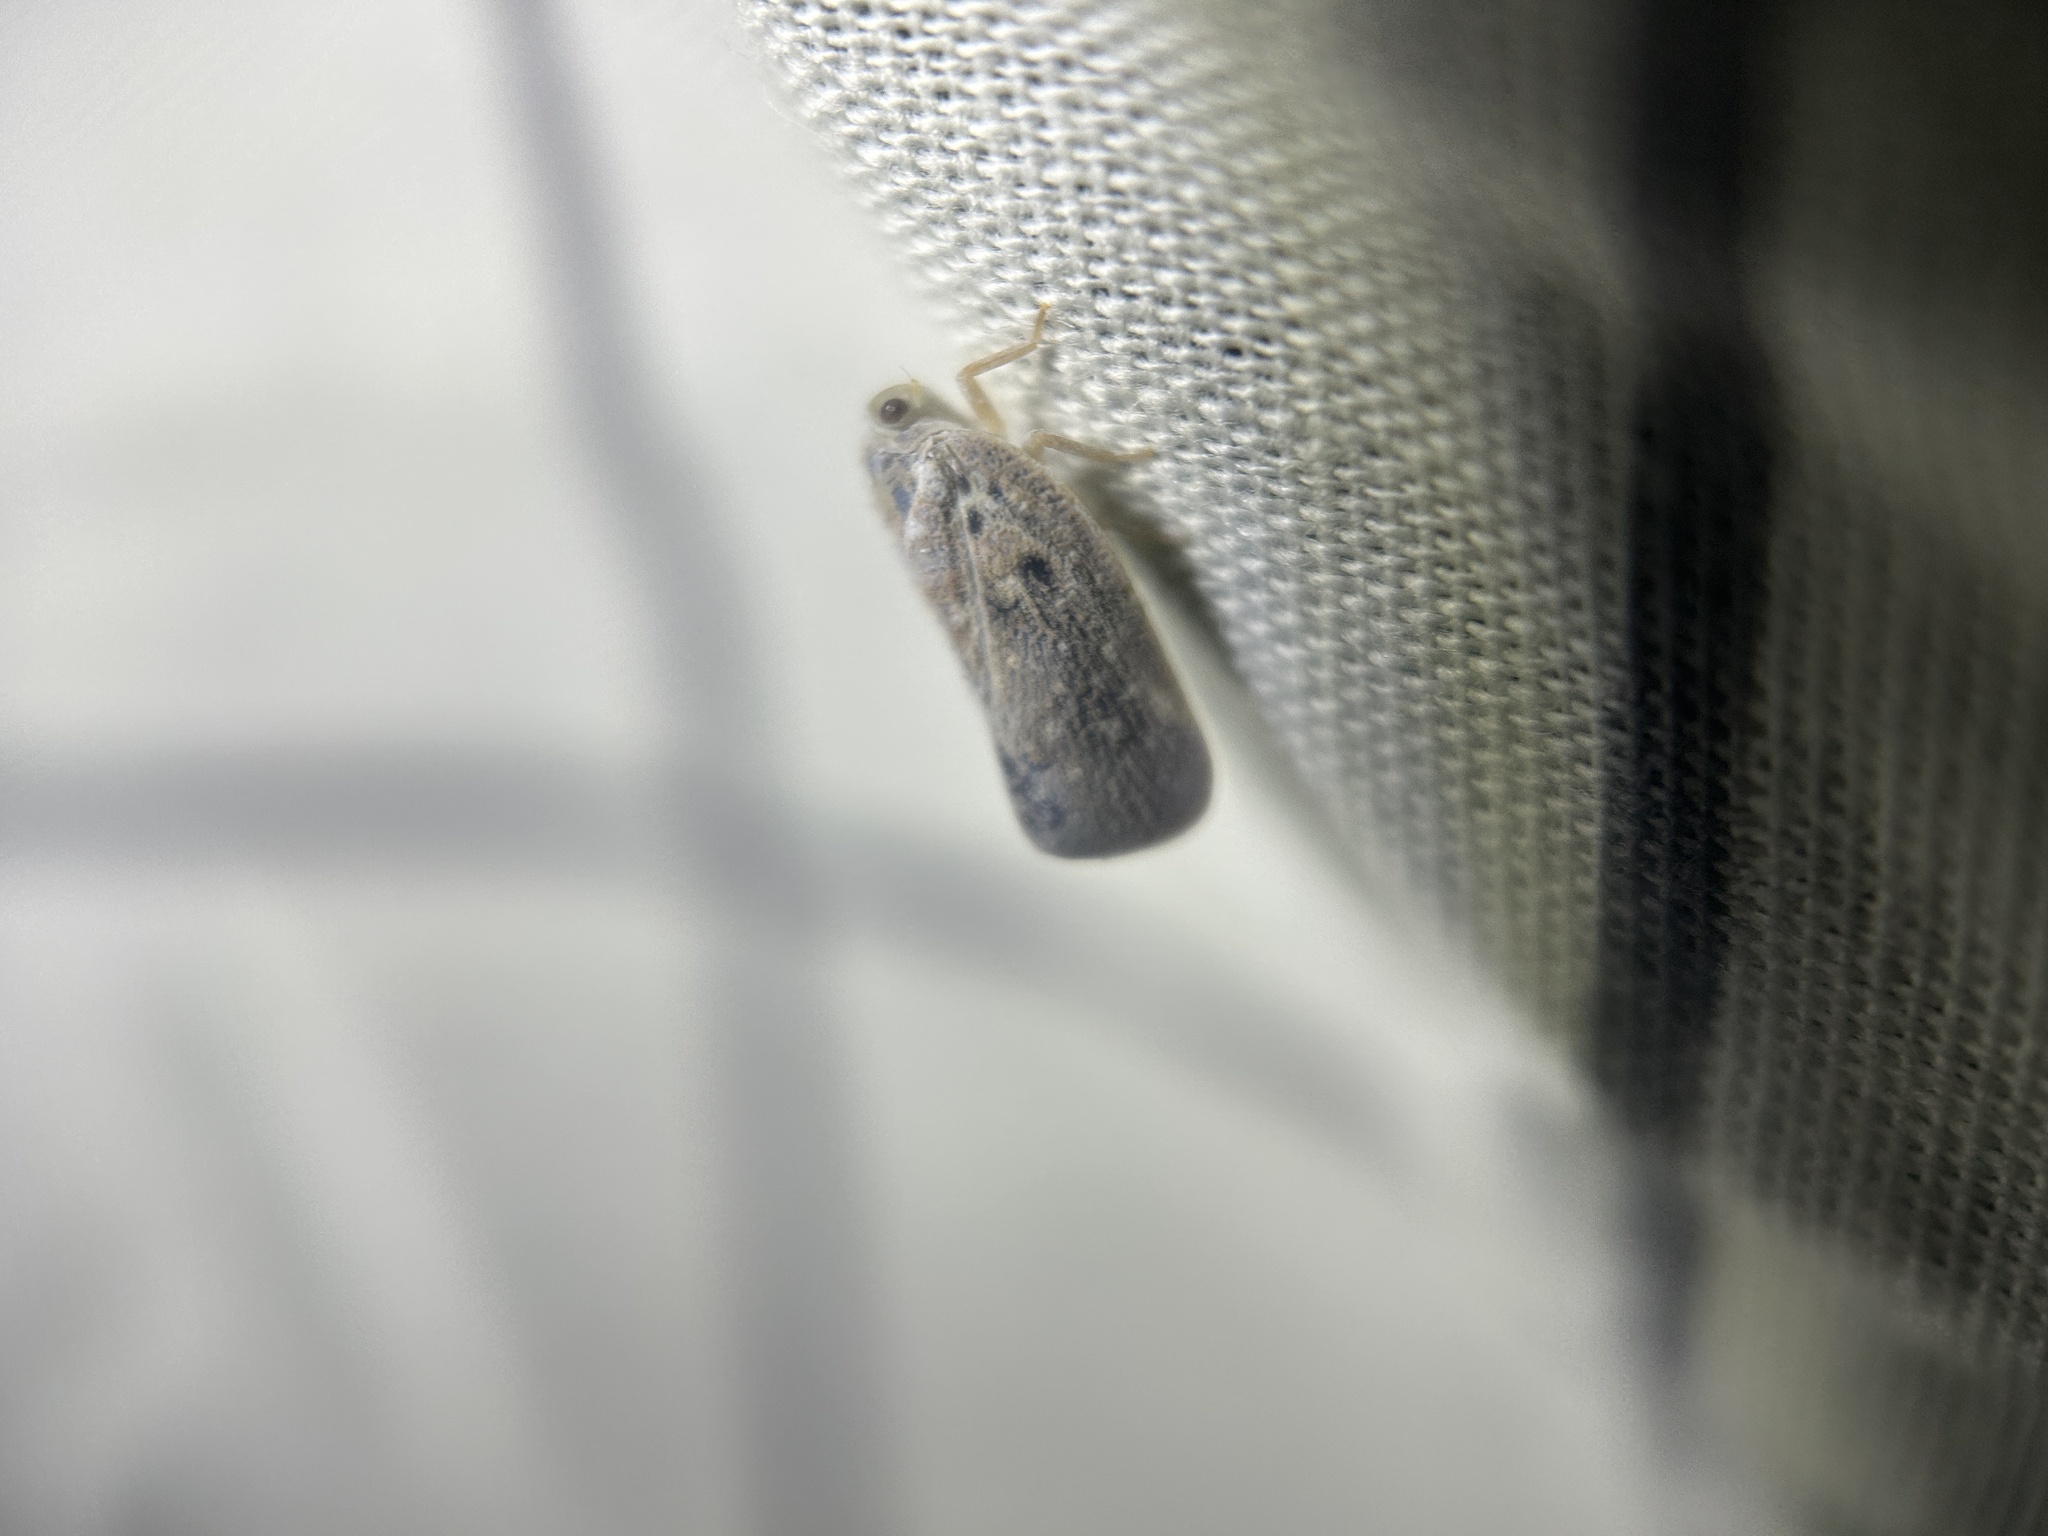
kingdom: Animalia
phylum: Arthropoda
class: Insecta
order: Hemiptera
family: Flatidae
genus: Metcalfa
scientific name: Metcalfa pruinosa
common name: Citrus flatid planthopper
